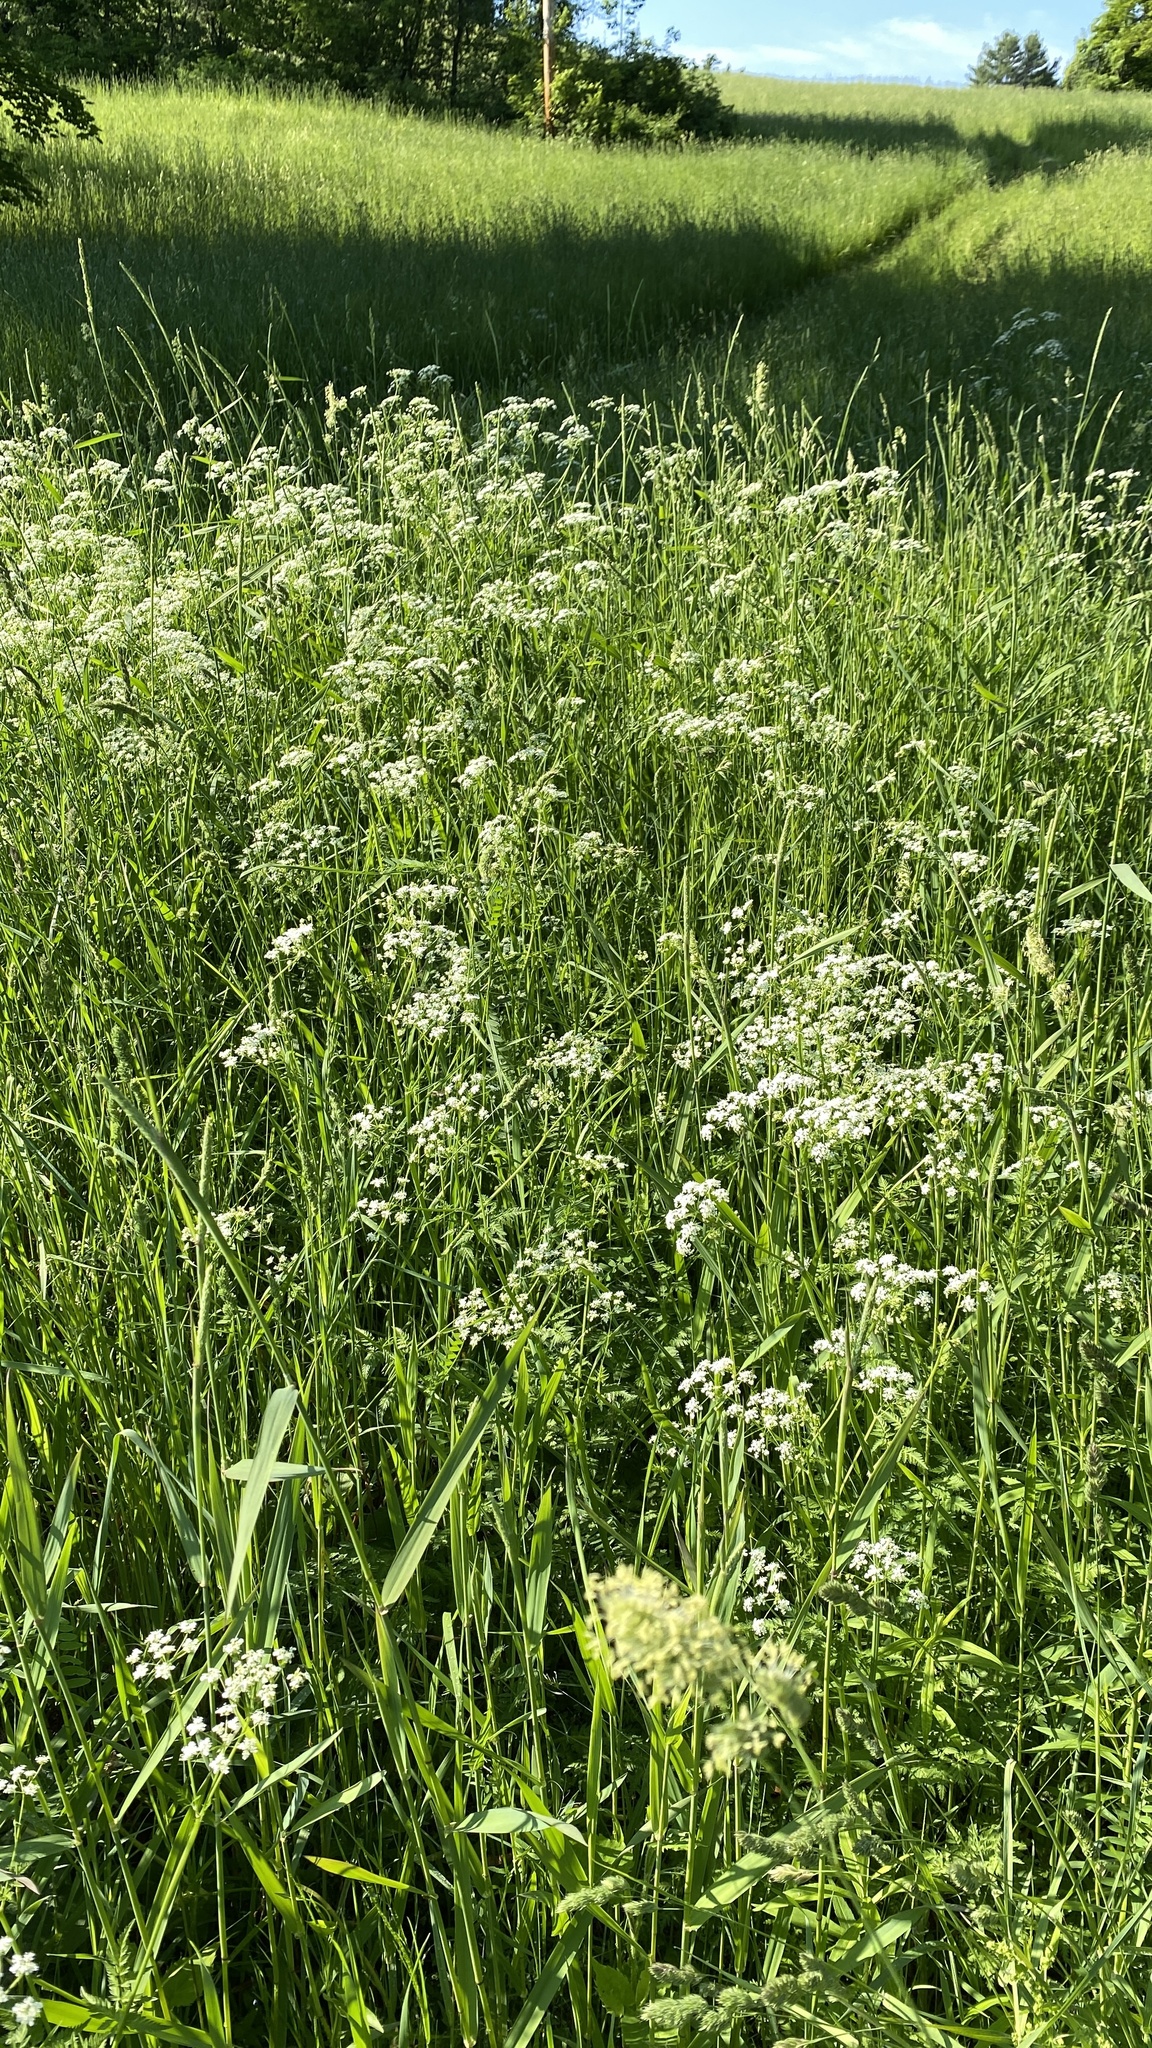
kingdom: Plantae
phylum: Tracheophyta
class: Magnoliopsida
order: Apiales
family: Apiaceae
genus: Anthriscus
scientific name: Anthriscus sylvestris
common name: Cow parsley
